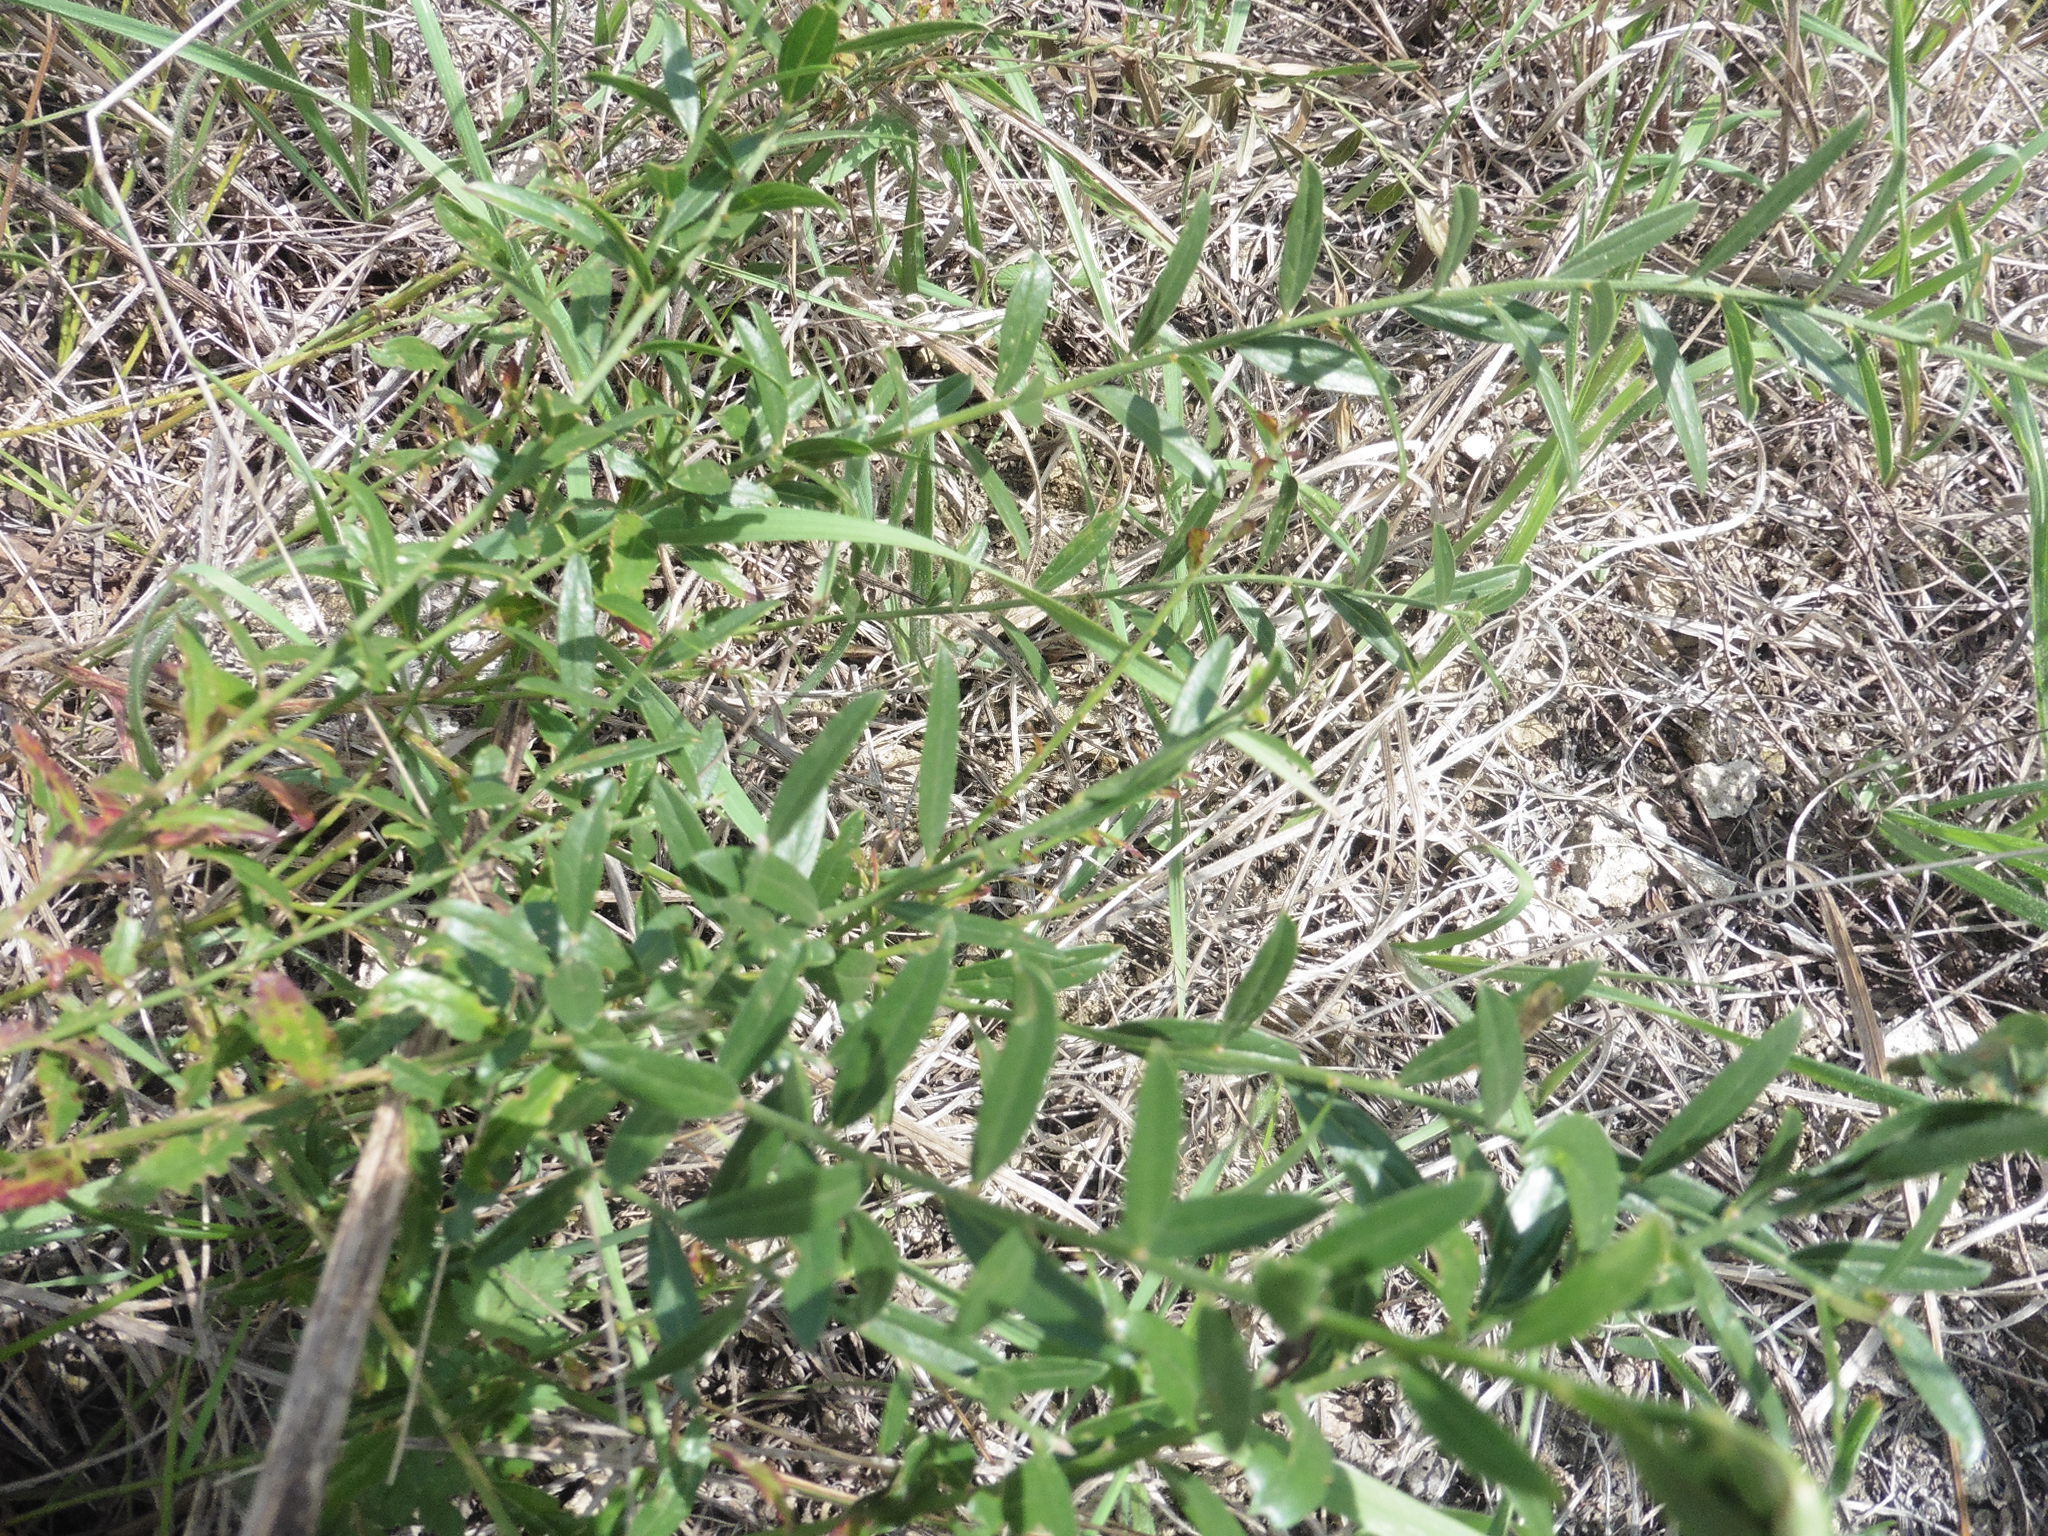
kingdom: Plantae
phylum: Tracheophyta
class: Magnoliopsida
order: Fabales
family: Fabaceae
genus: Genista
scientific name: Genista tinctoria
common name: Dyer's greenweed
